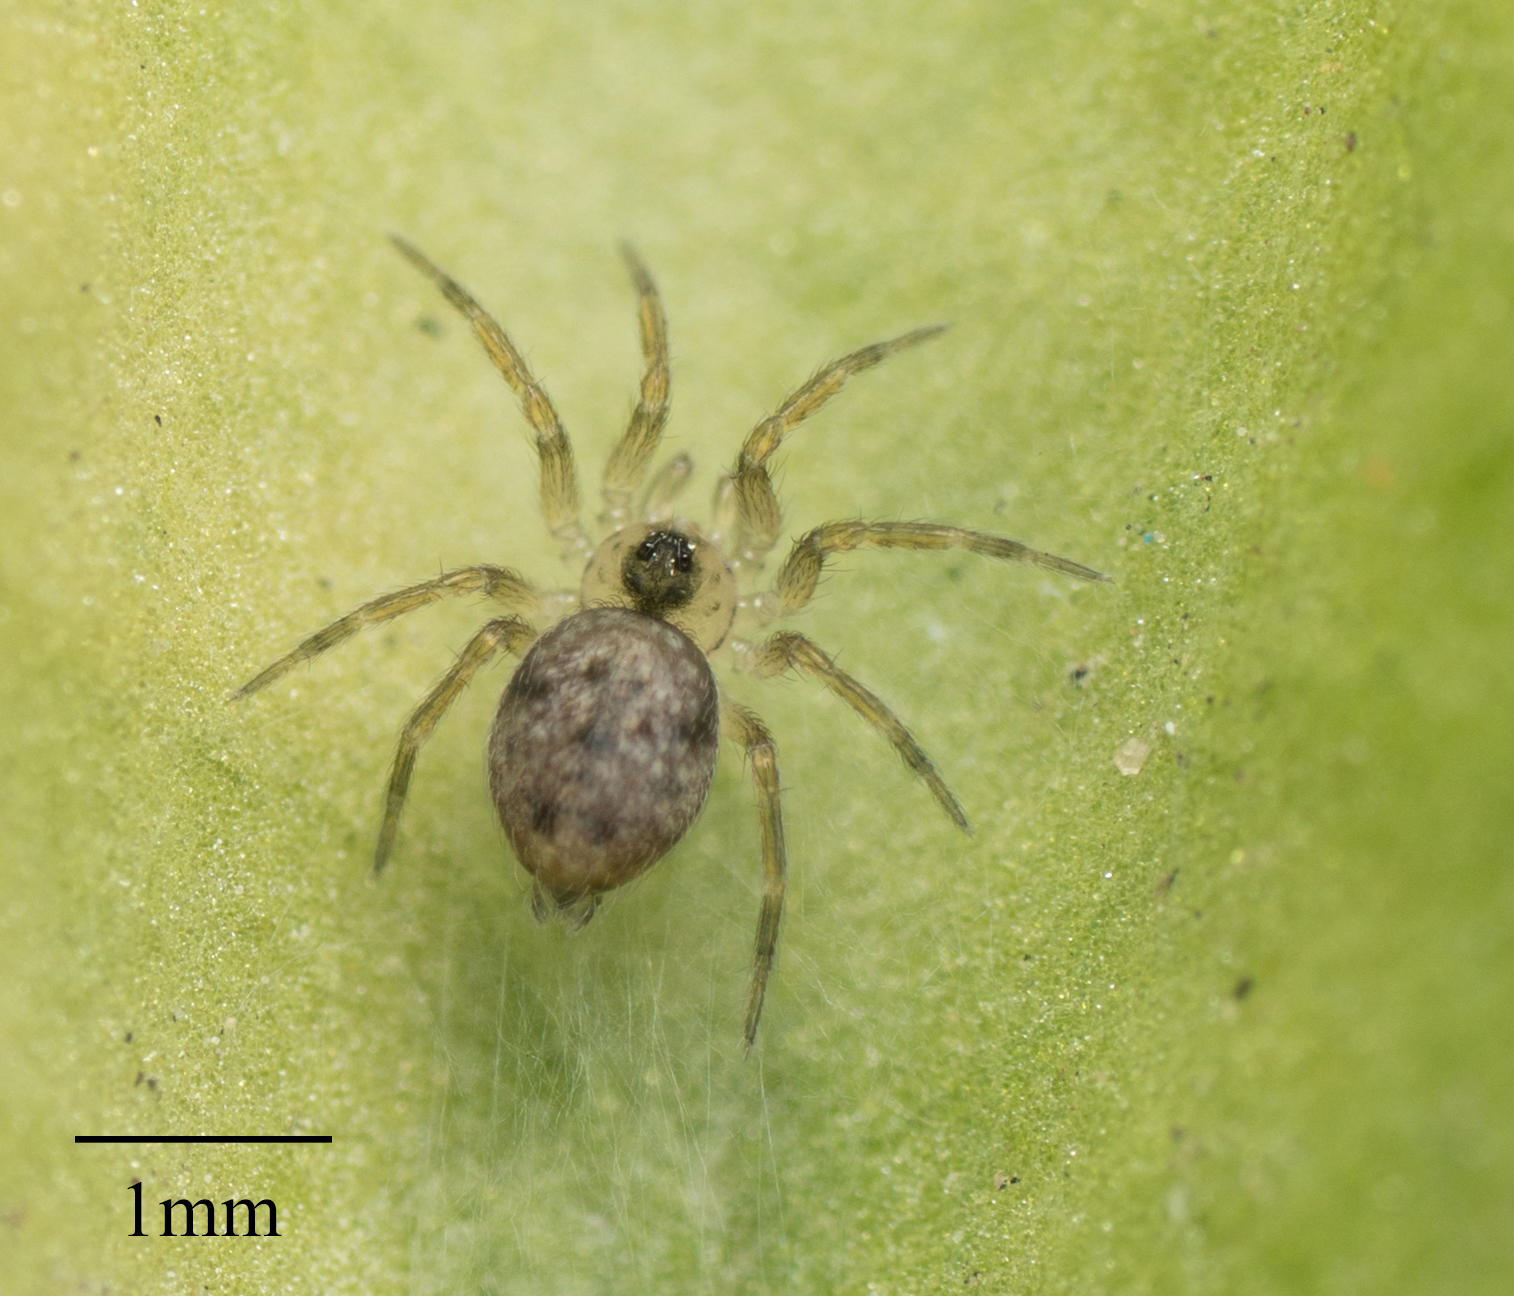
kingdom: Animalia
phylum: Arthropoda
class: Arachnida
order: Araneae
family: Oecobiidae
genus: Oecobius
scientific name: Oecobius navus
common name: Flatmesh weaver
